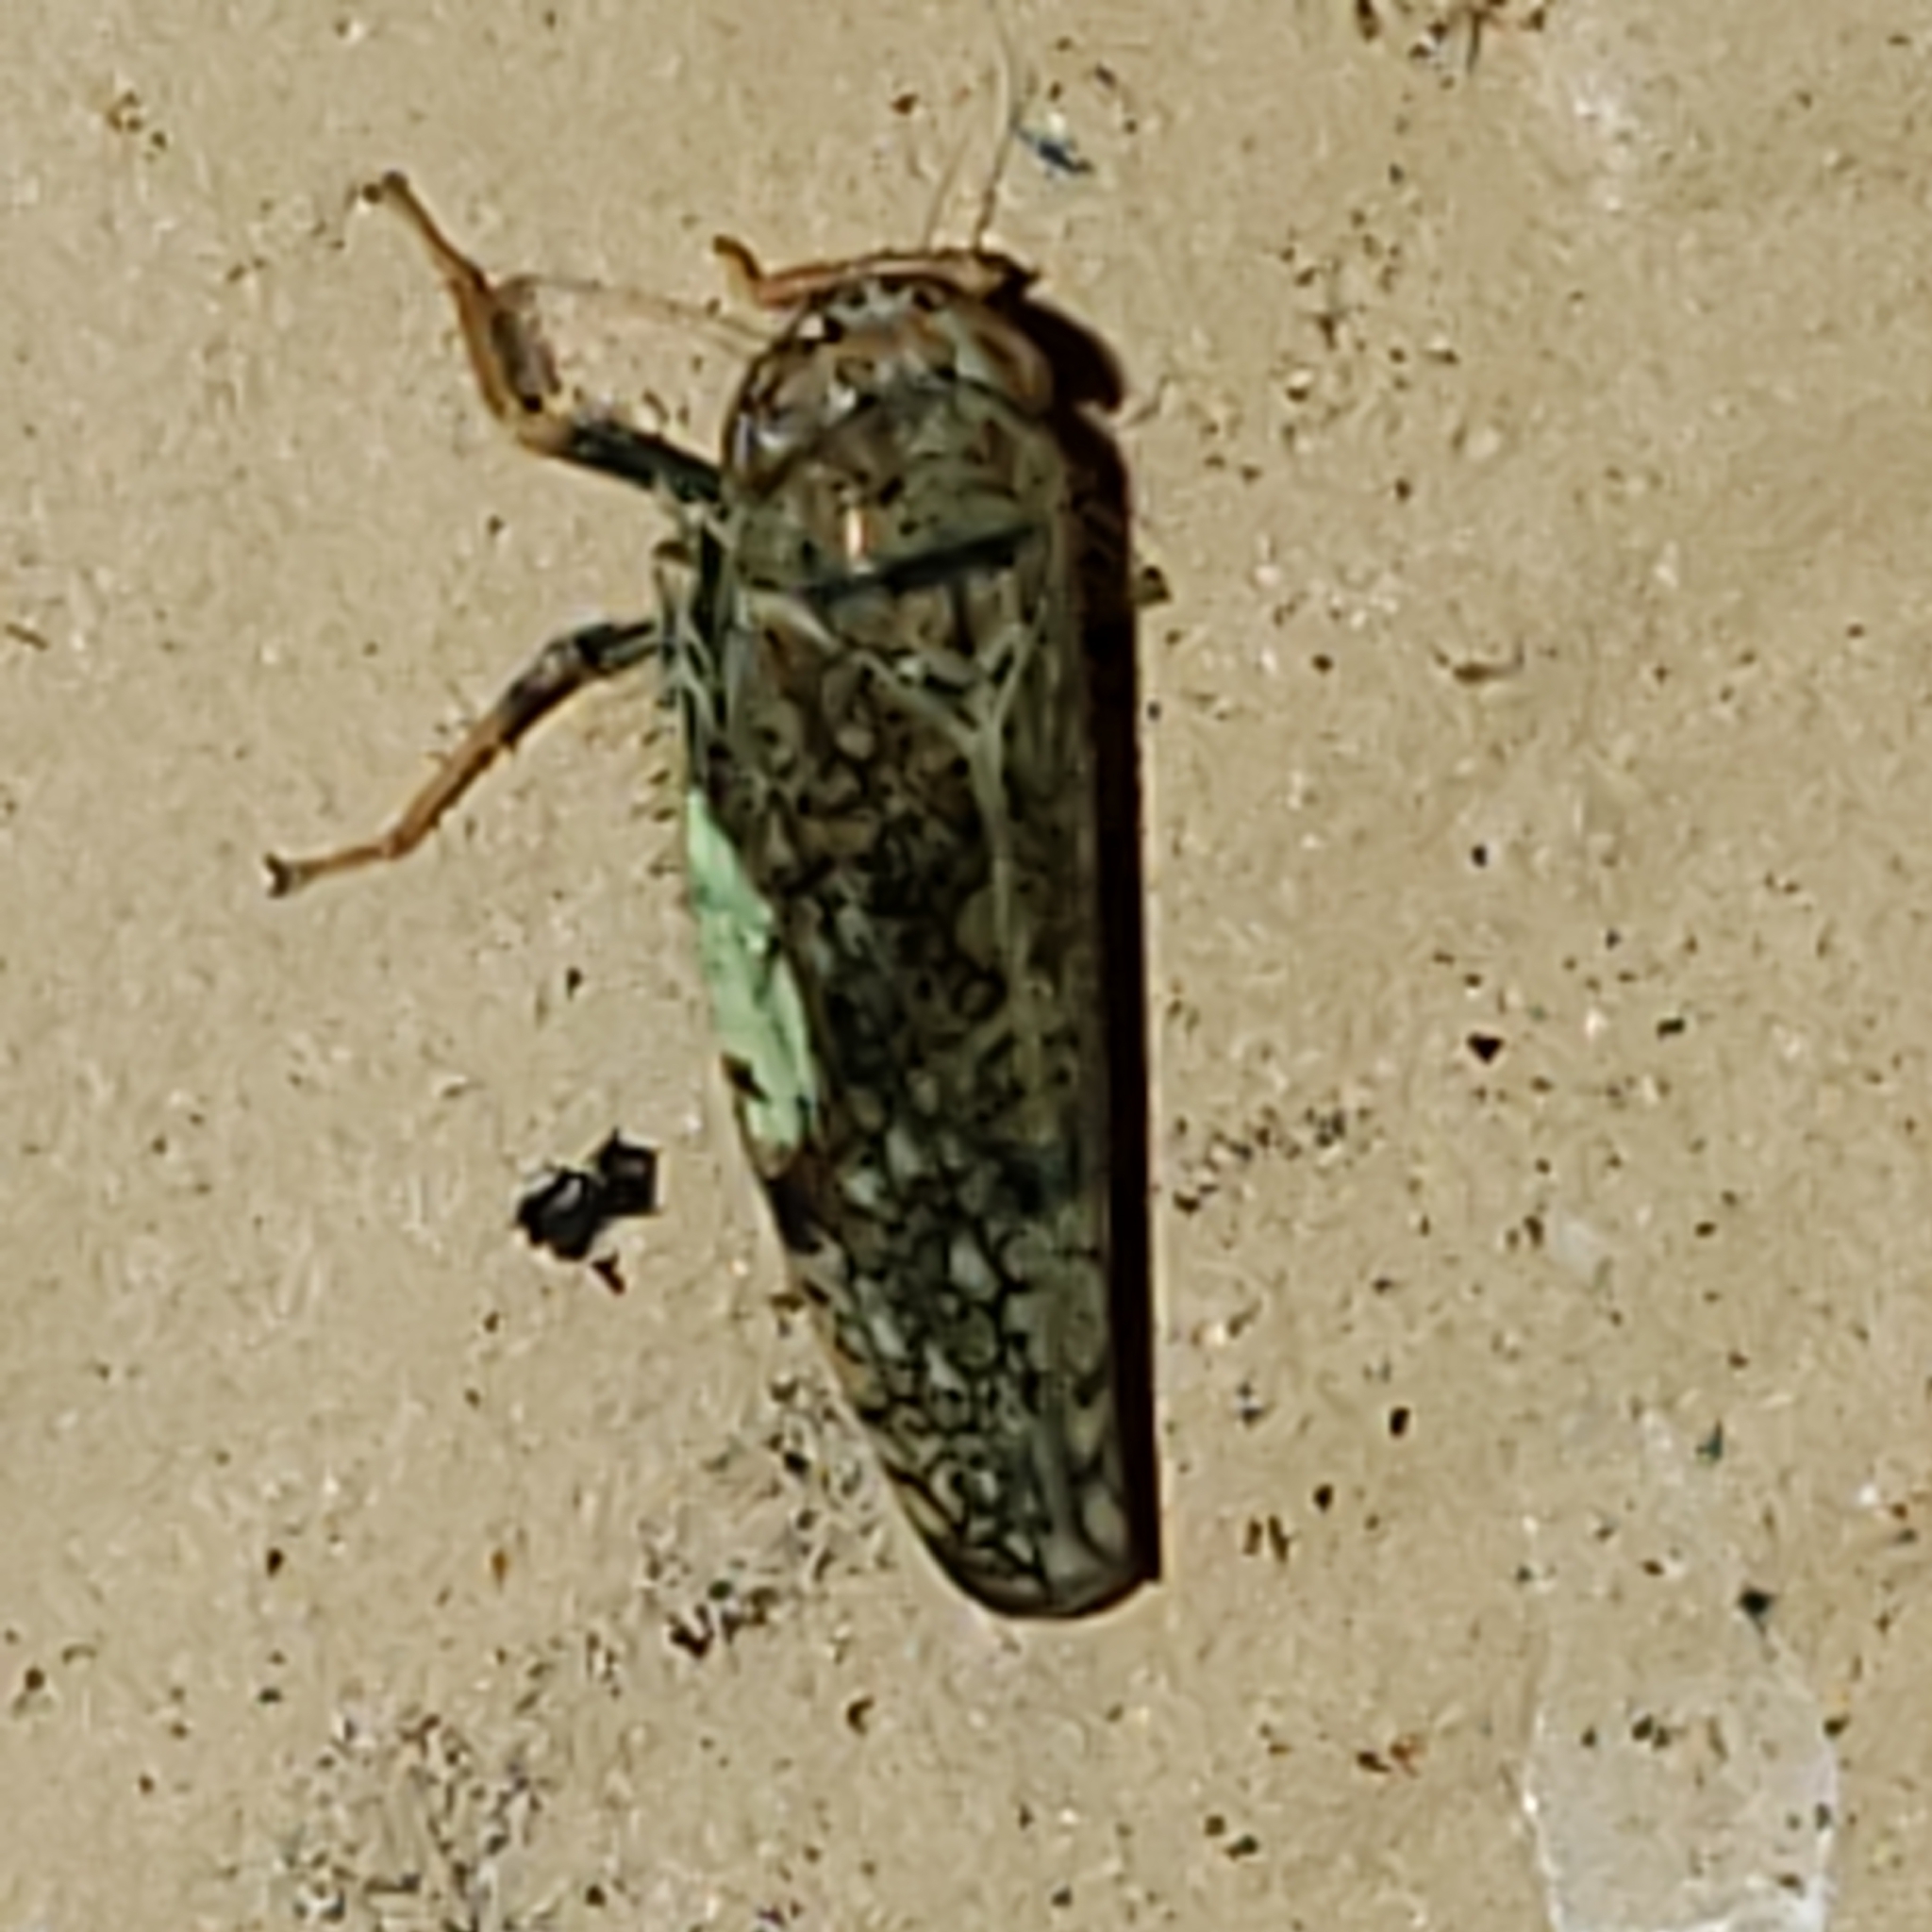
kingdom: Animalia
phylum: Arthropoda
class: Insecta
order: Hemiptera
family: Cicadellidae
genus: Orientus
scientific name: Orientus ishidae
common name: Japanese leafhopper
